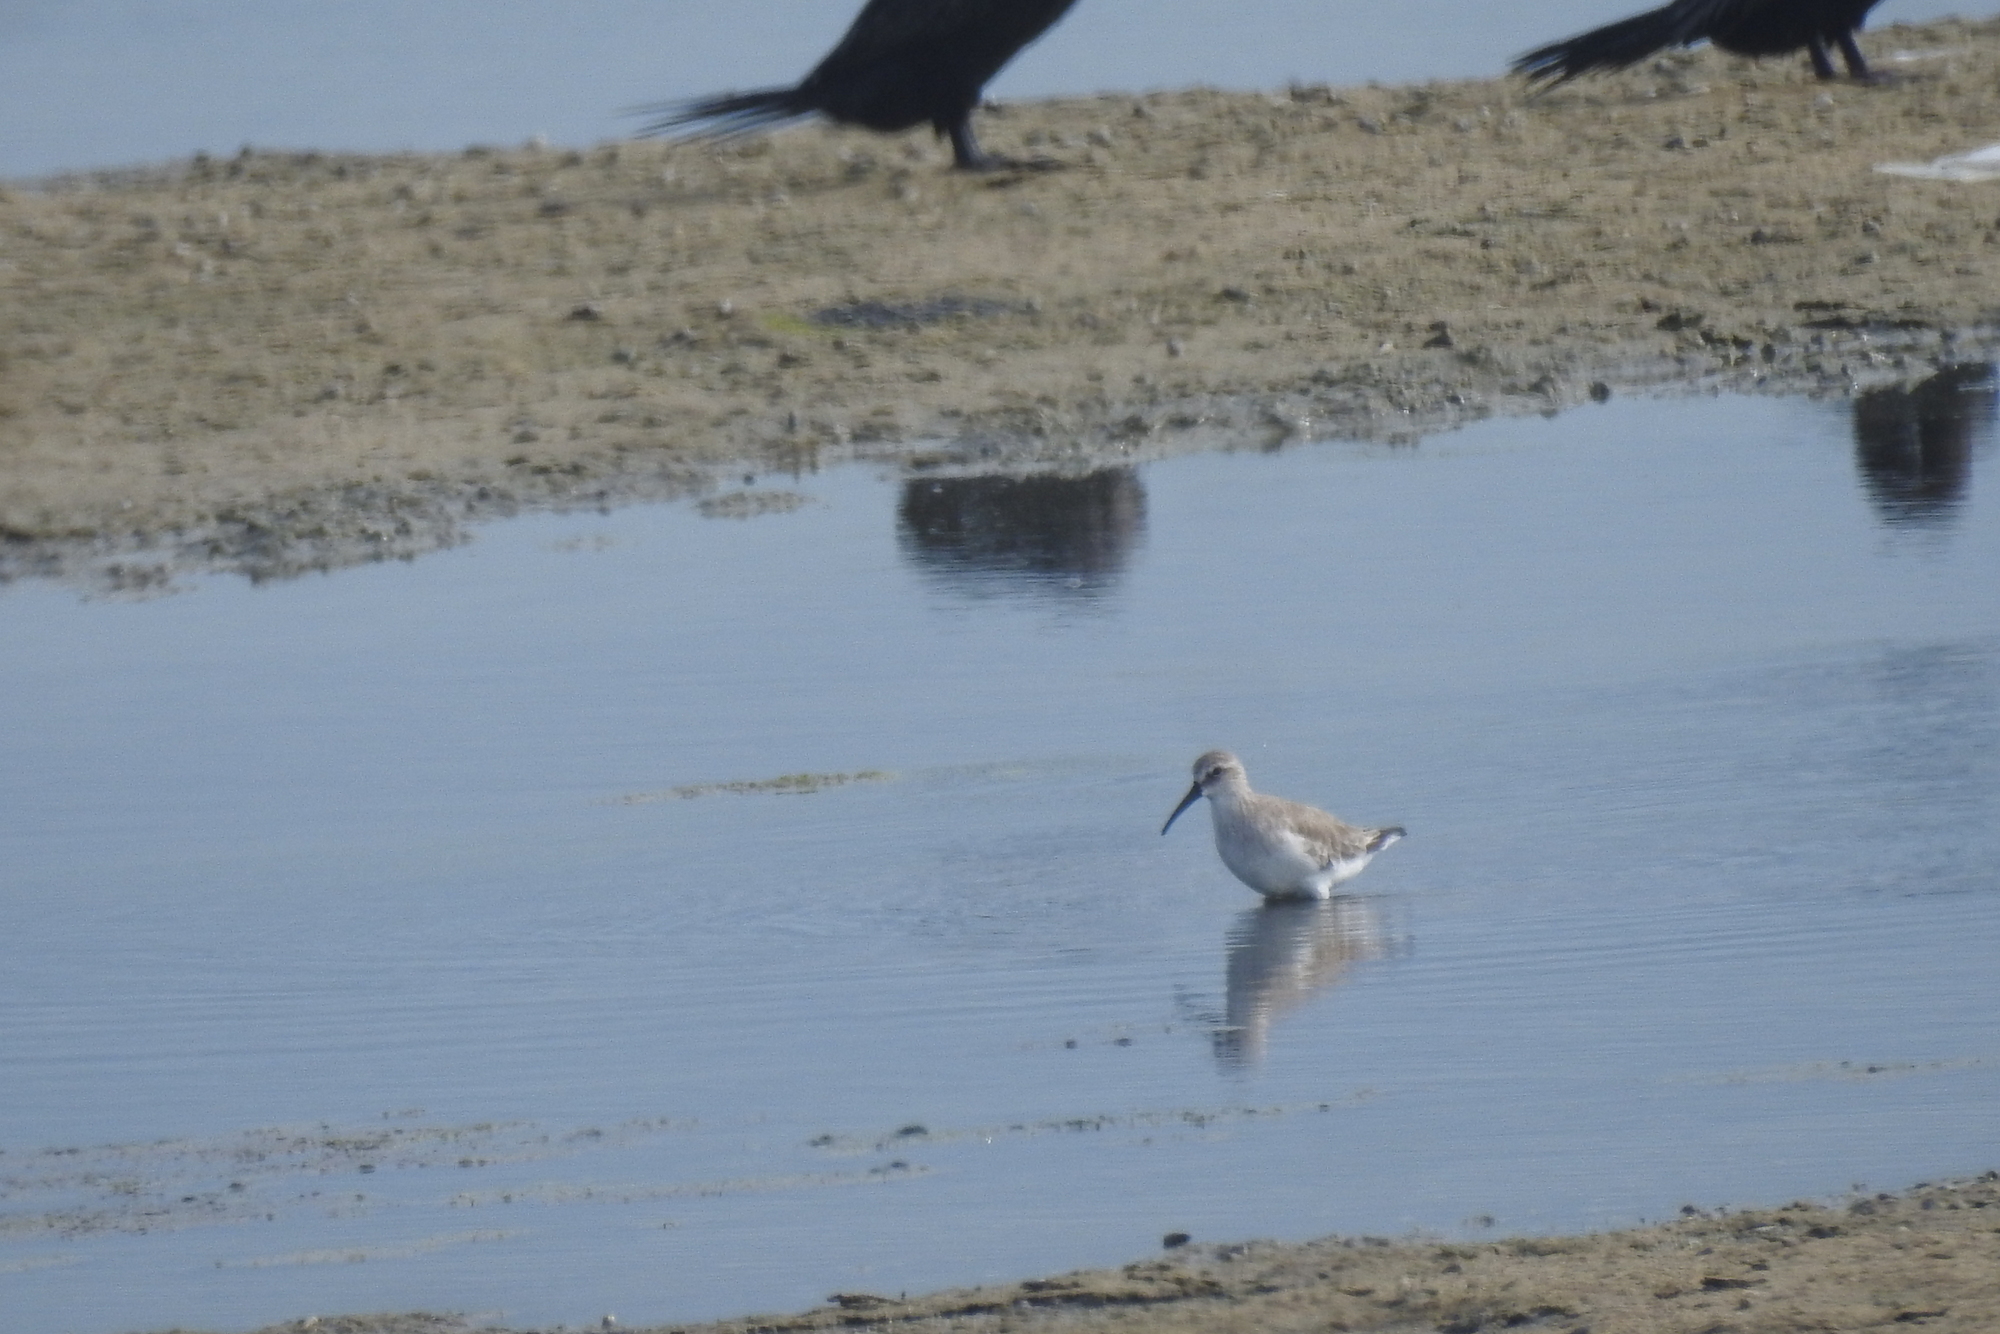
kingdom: Animalia
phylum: Chordata
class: Aves
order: Charadriiformes
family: Scolopacidae
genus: Calidris
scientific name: Calidris ferruginea
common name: Curlew sandpiper
